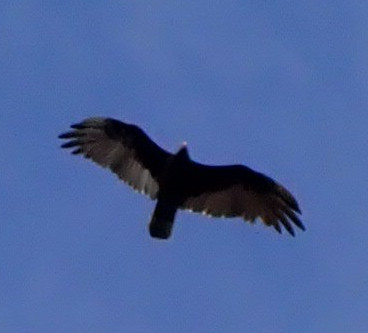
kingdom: Animalia
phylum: Chordata
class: Aves
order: Accipitriformes
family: Cathartidae
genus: Cathartes
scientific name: Cathartes aura
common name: Turkey vulture
